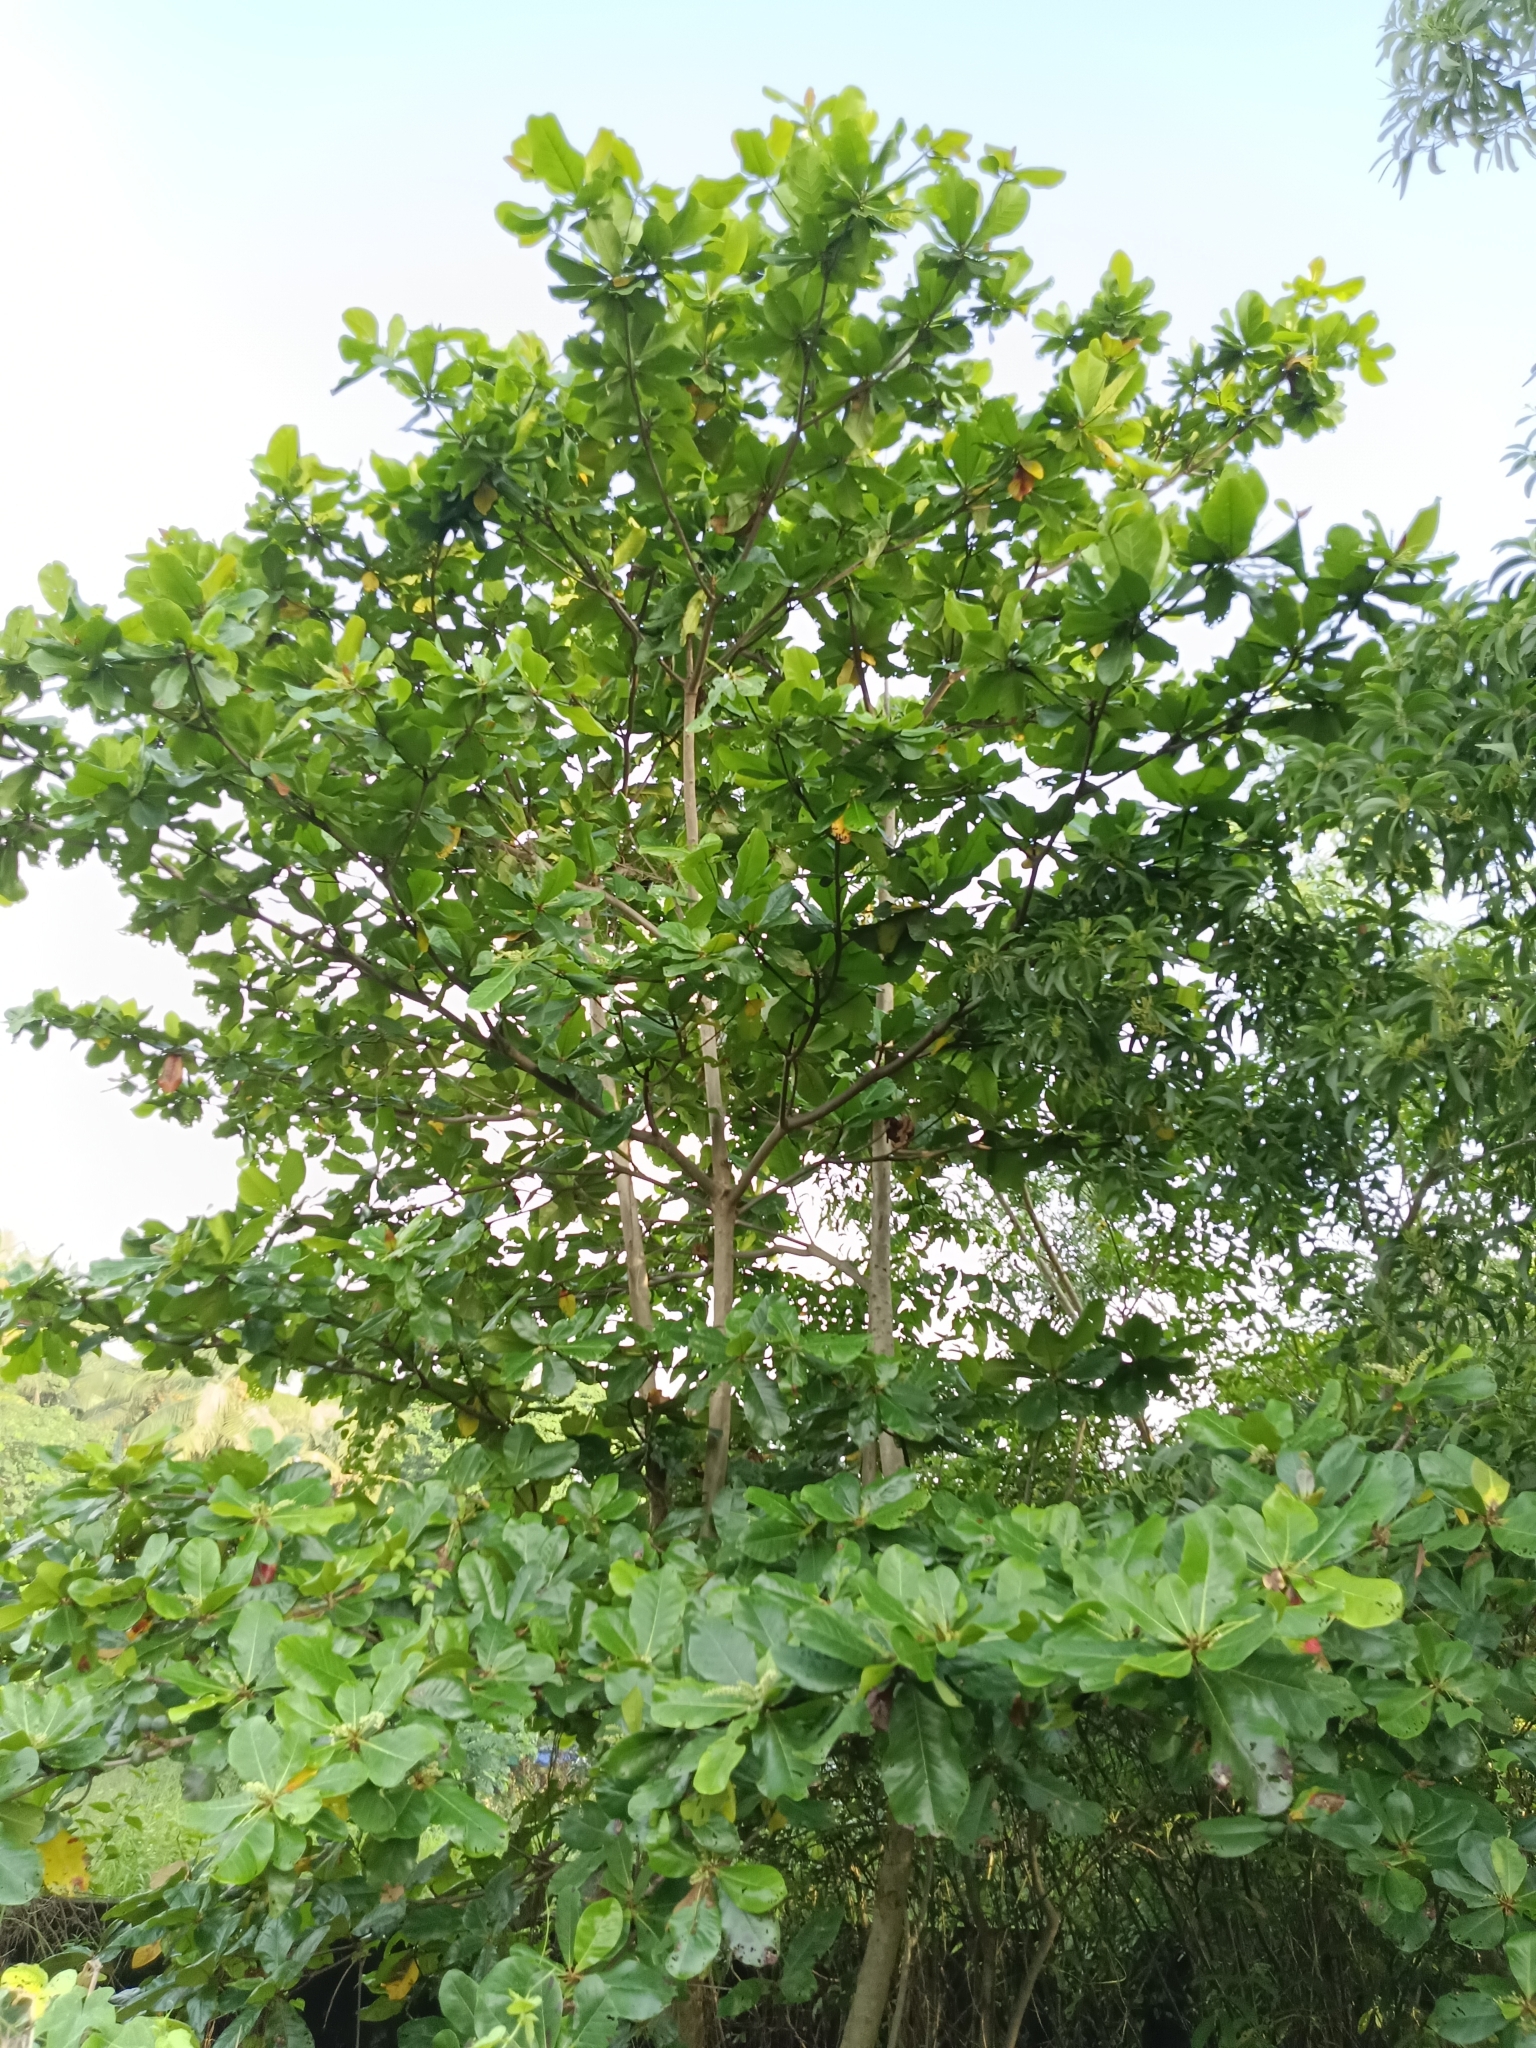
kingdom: Plantae
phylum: Tracheophyta
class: Magnoliopsida
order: Myrtales
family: Combretaceae
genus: Terminalia
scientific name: Terminalia catappa
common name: Tropical almond
